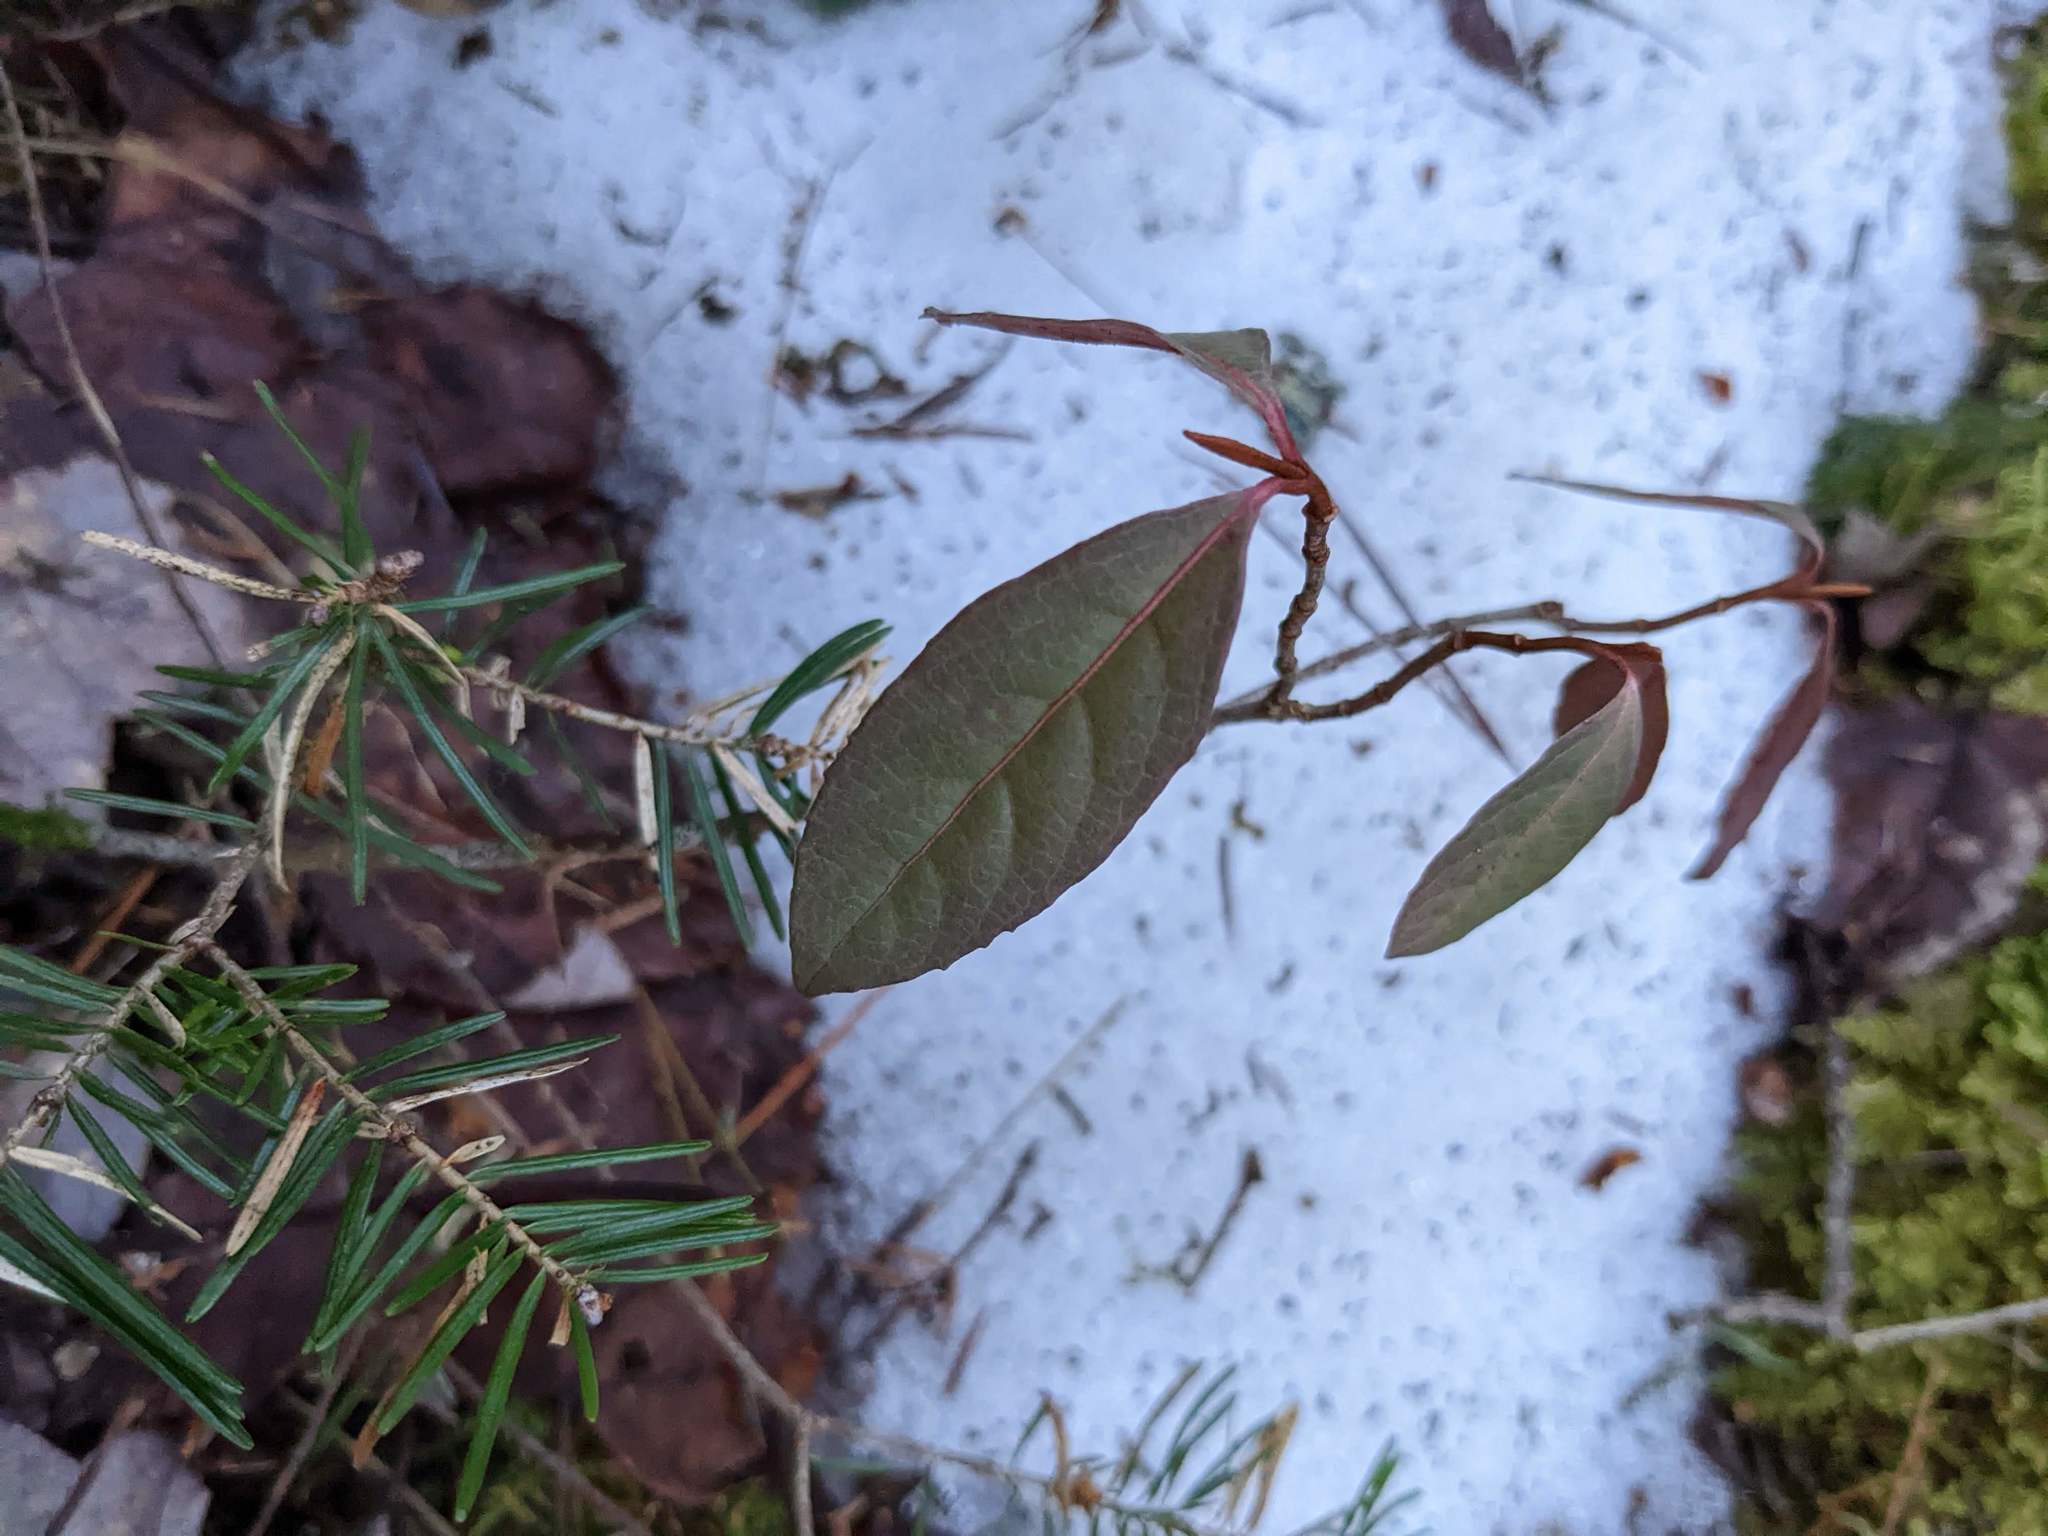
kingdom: Plantae
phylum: Tracheophyta
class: Magnoliopsida
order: Dipsacales
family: Viburnaceae
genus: Viburnum
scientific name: Viburnum cassinoides
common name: Swamp haw
